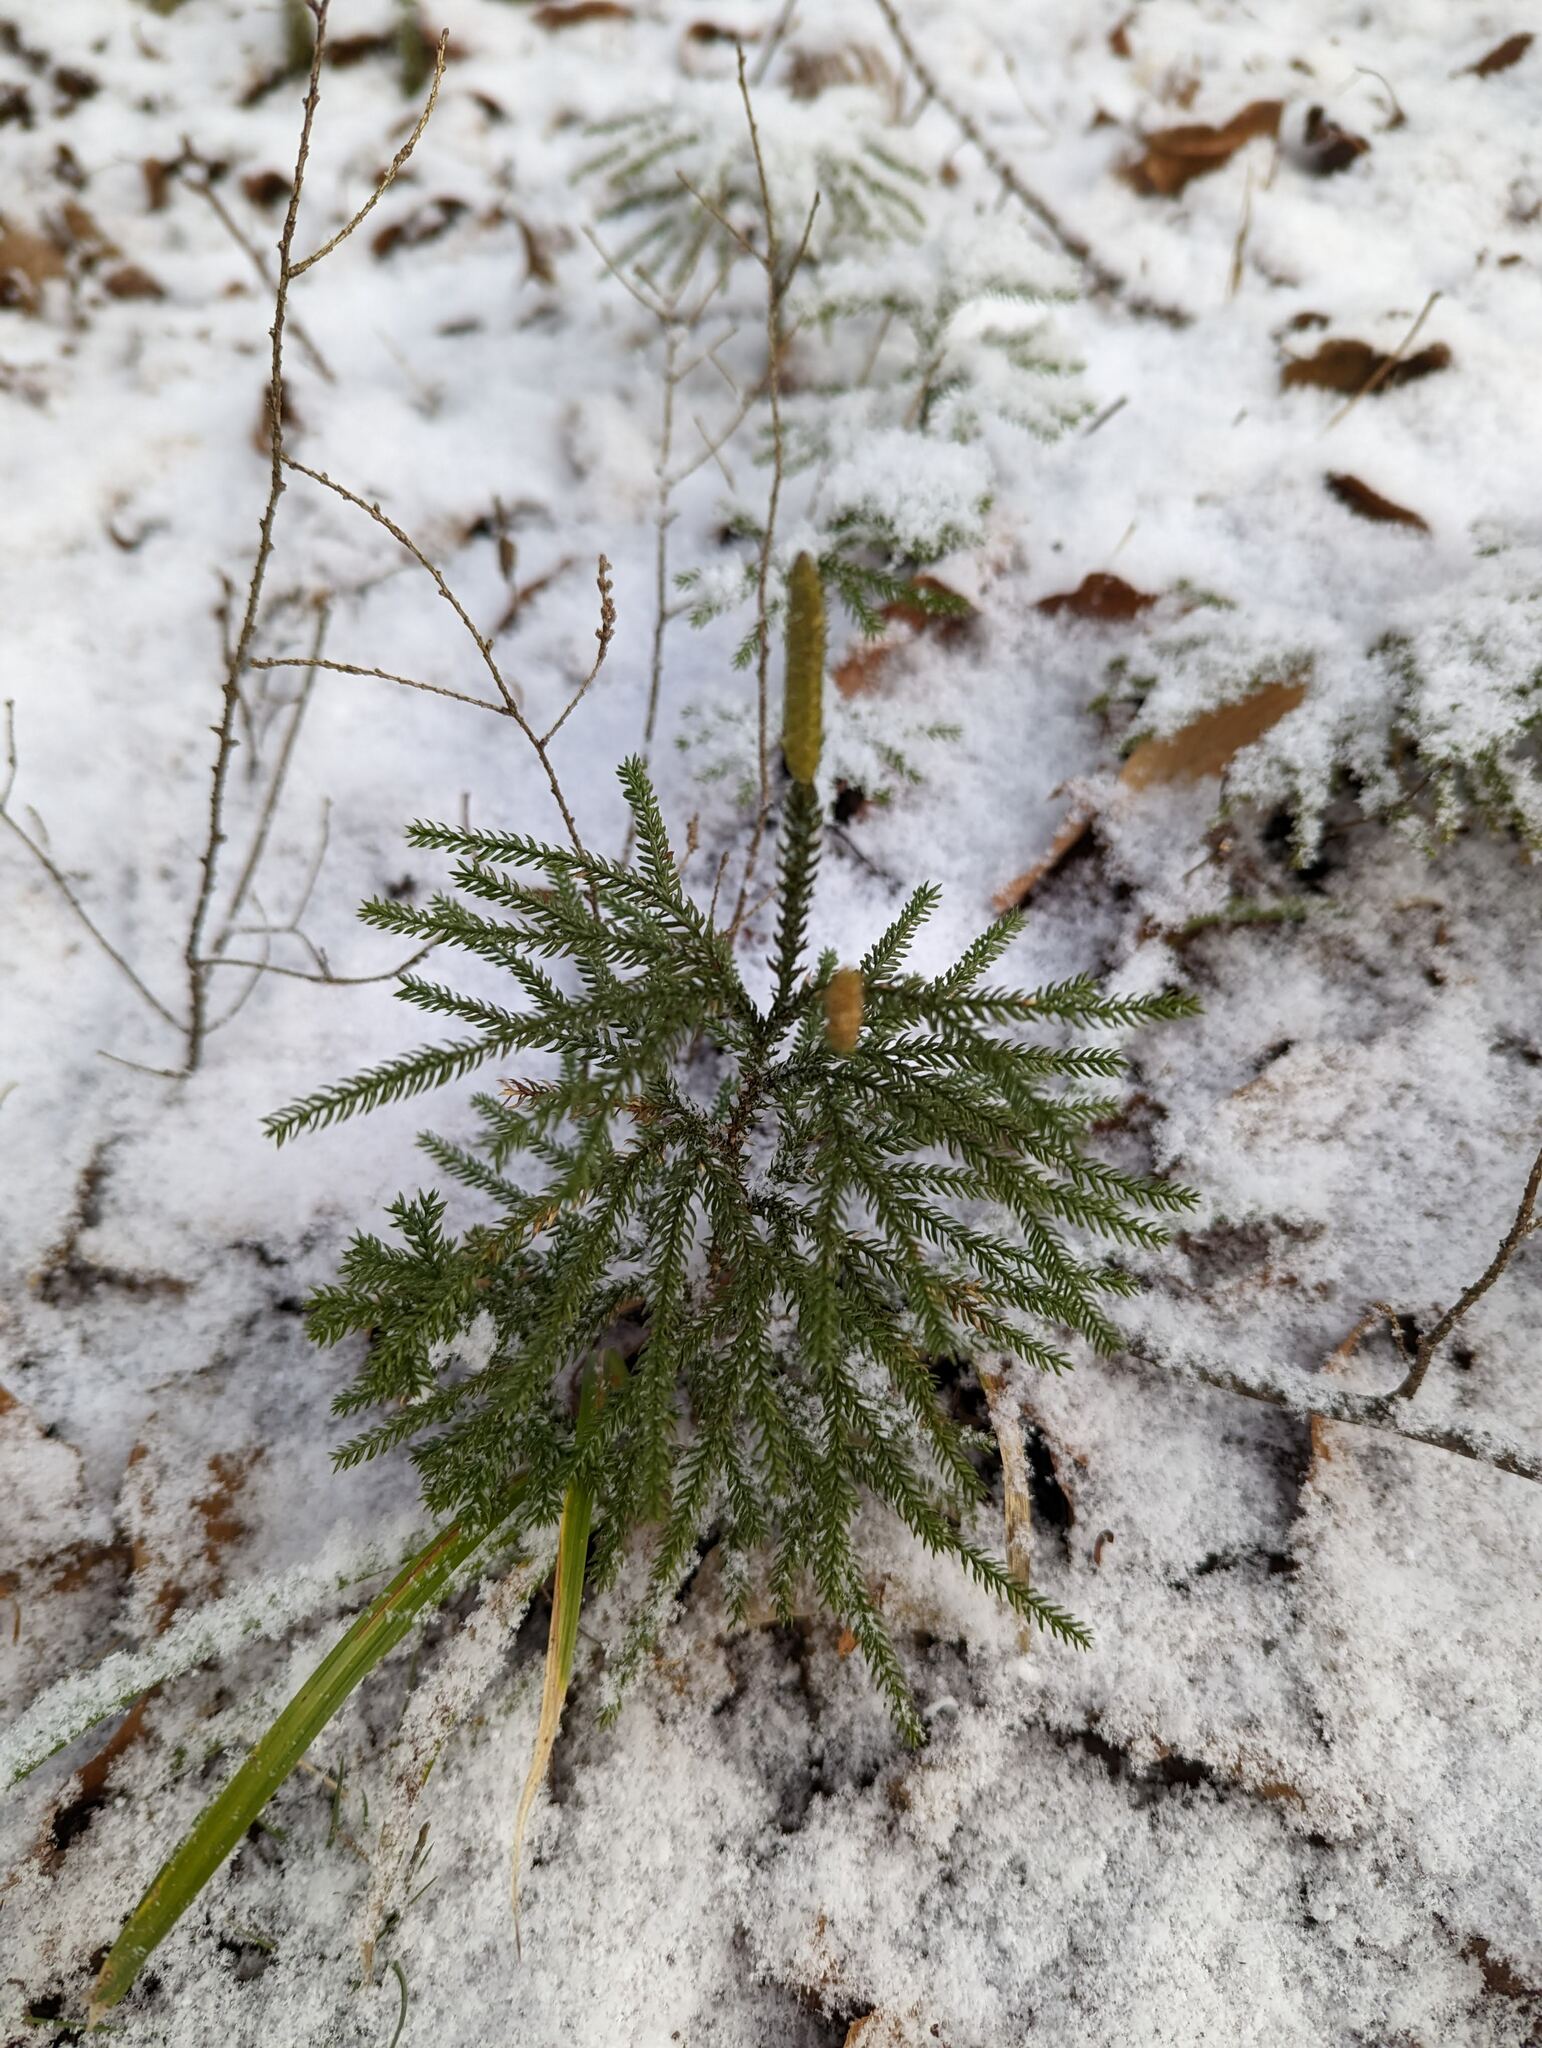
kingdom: Plantae
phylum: Tracheophyta
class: Lycopodiopsida
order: Lycopodiales
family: Lycopodiaceae
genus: Dendrolycopodium
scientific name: Dendrolycopodium dendroideum
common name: Northern tree-clubmoss
